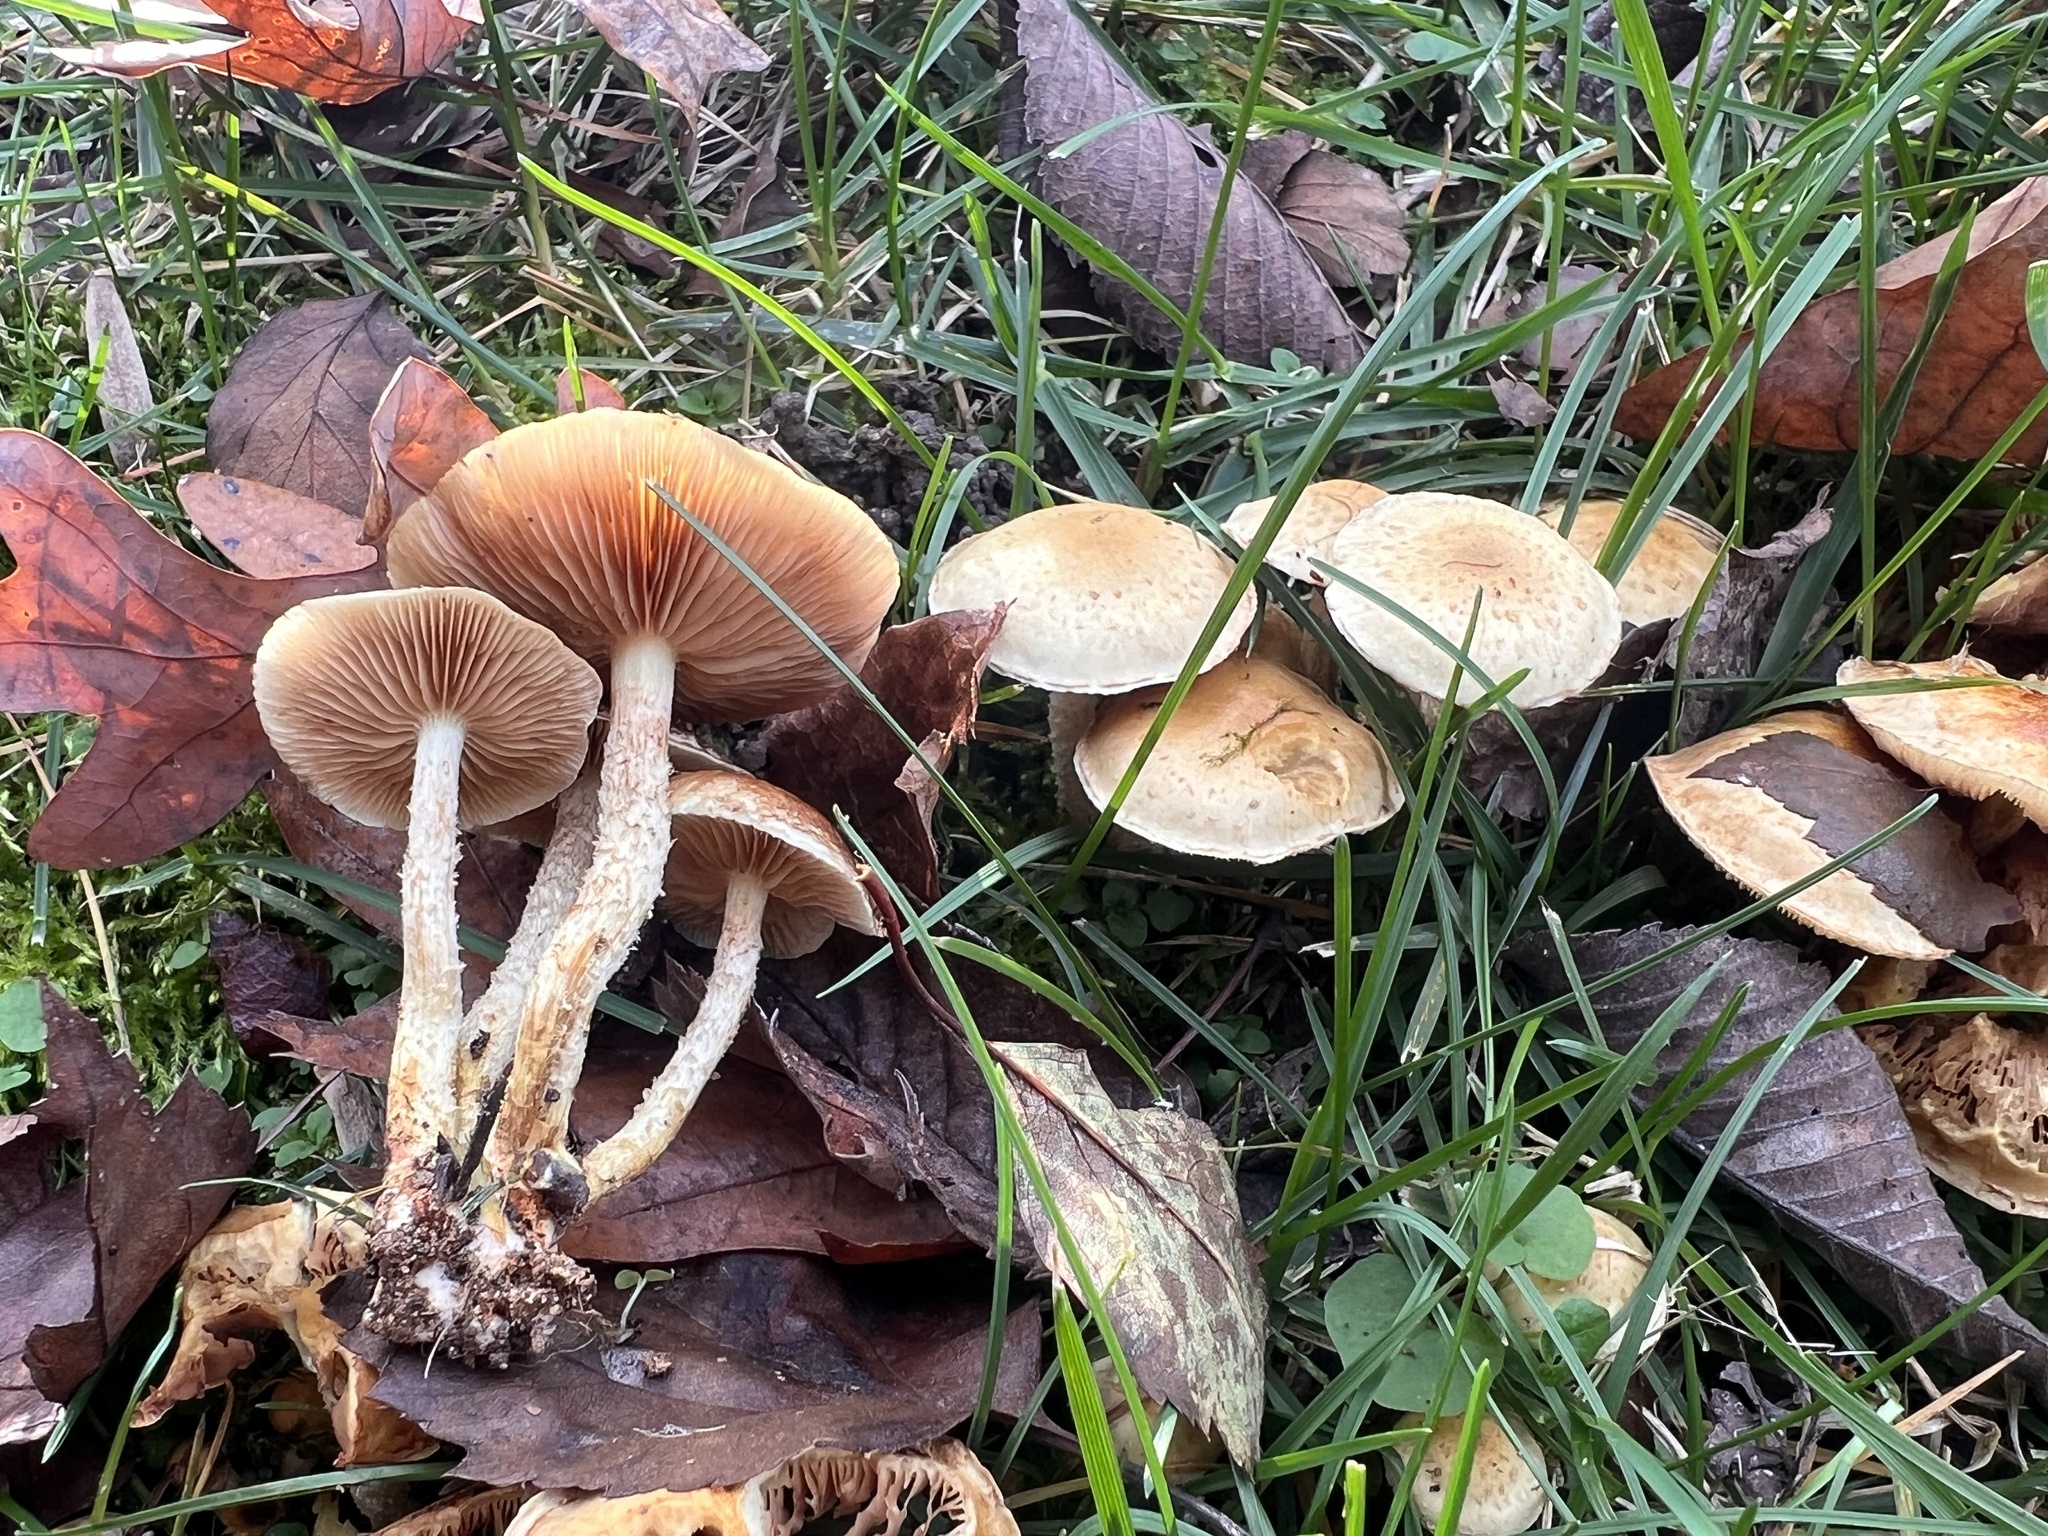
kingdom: Fungi
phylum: Basidiomycota
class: Agaricomycetes
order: Agaricales
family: Strophariaceae
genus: Pholiota
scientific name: Pholiota terrestris
